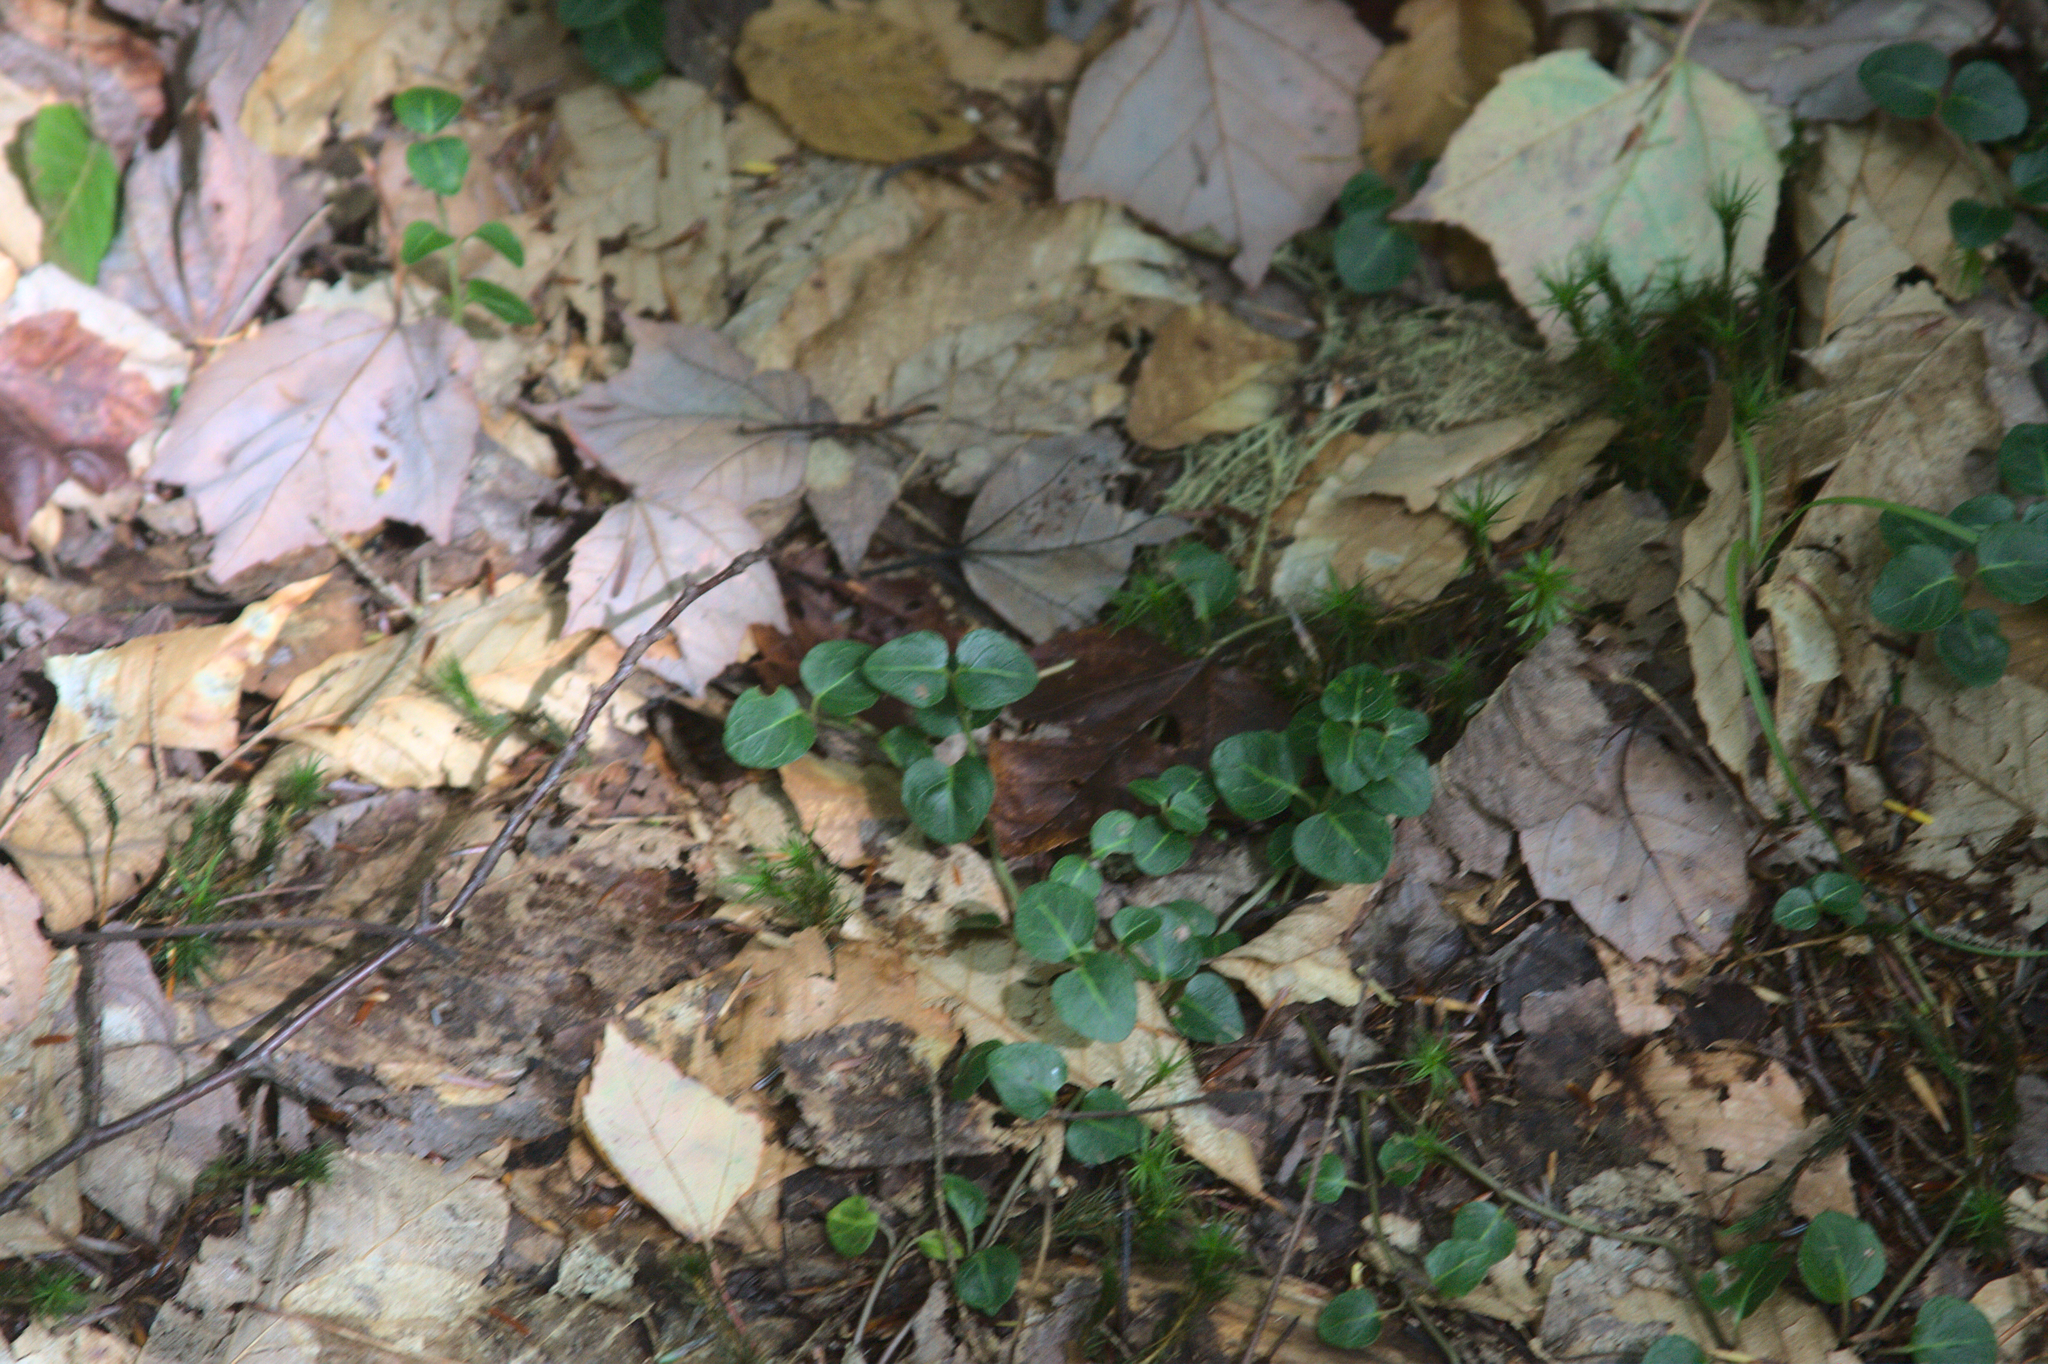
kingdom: Plantae
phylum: Tracheophyta
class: Magnoliopsida
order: Gentianales
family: Rubiaceae
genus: Mitchella
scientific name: Mitchella repens
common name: Partridge-berry
